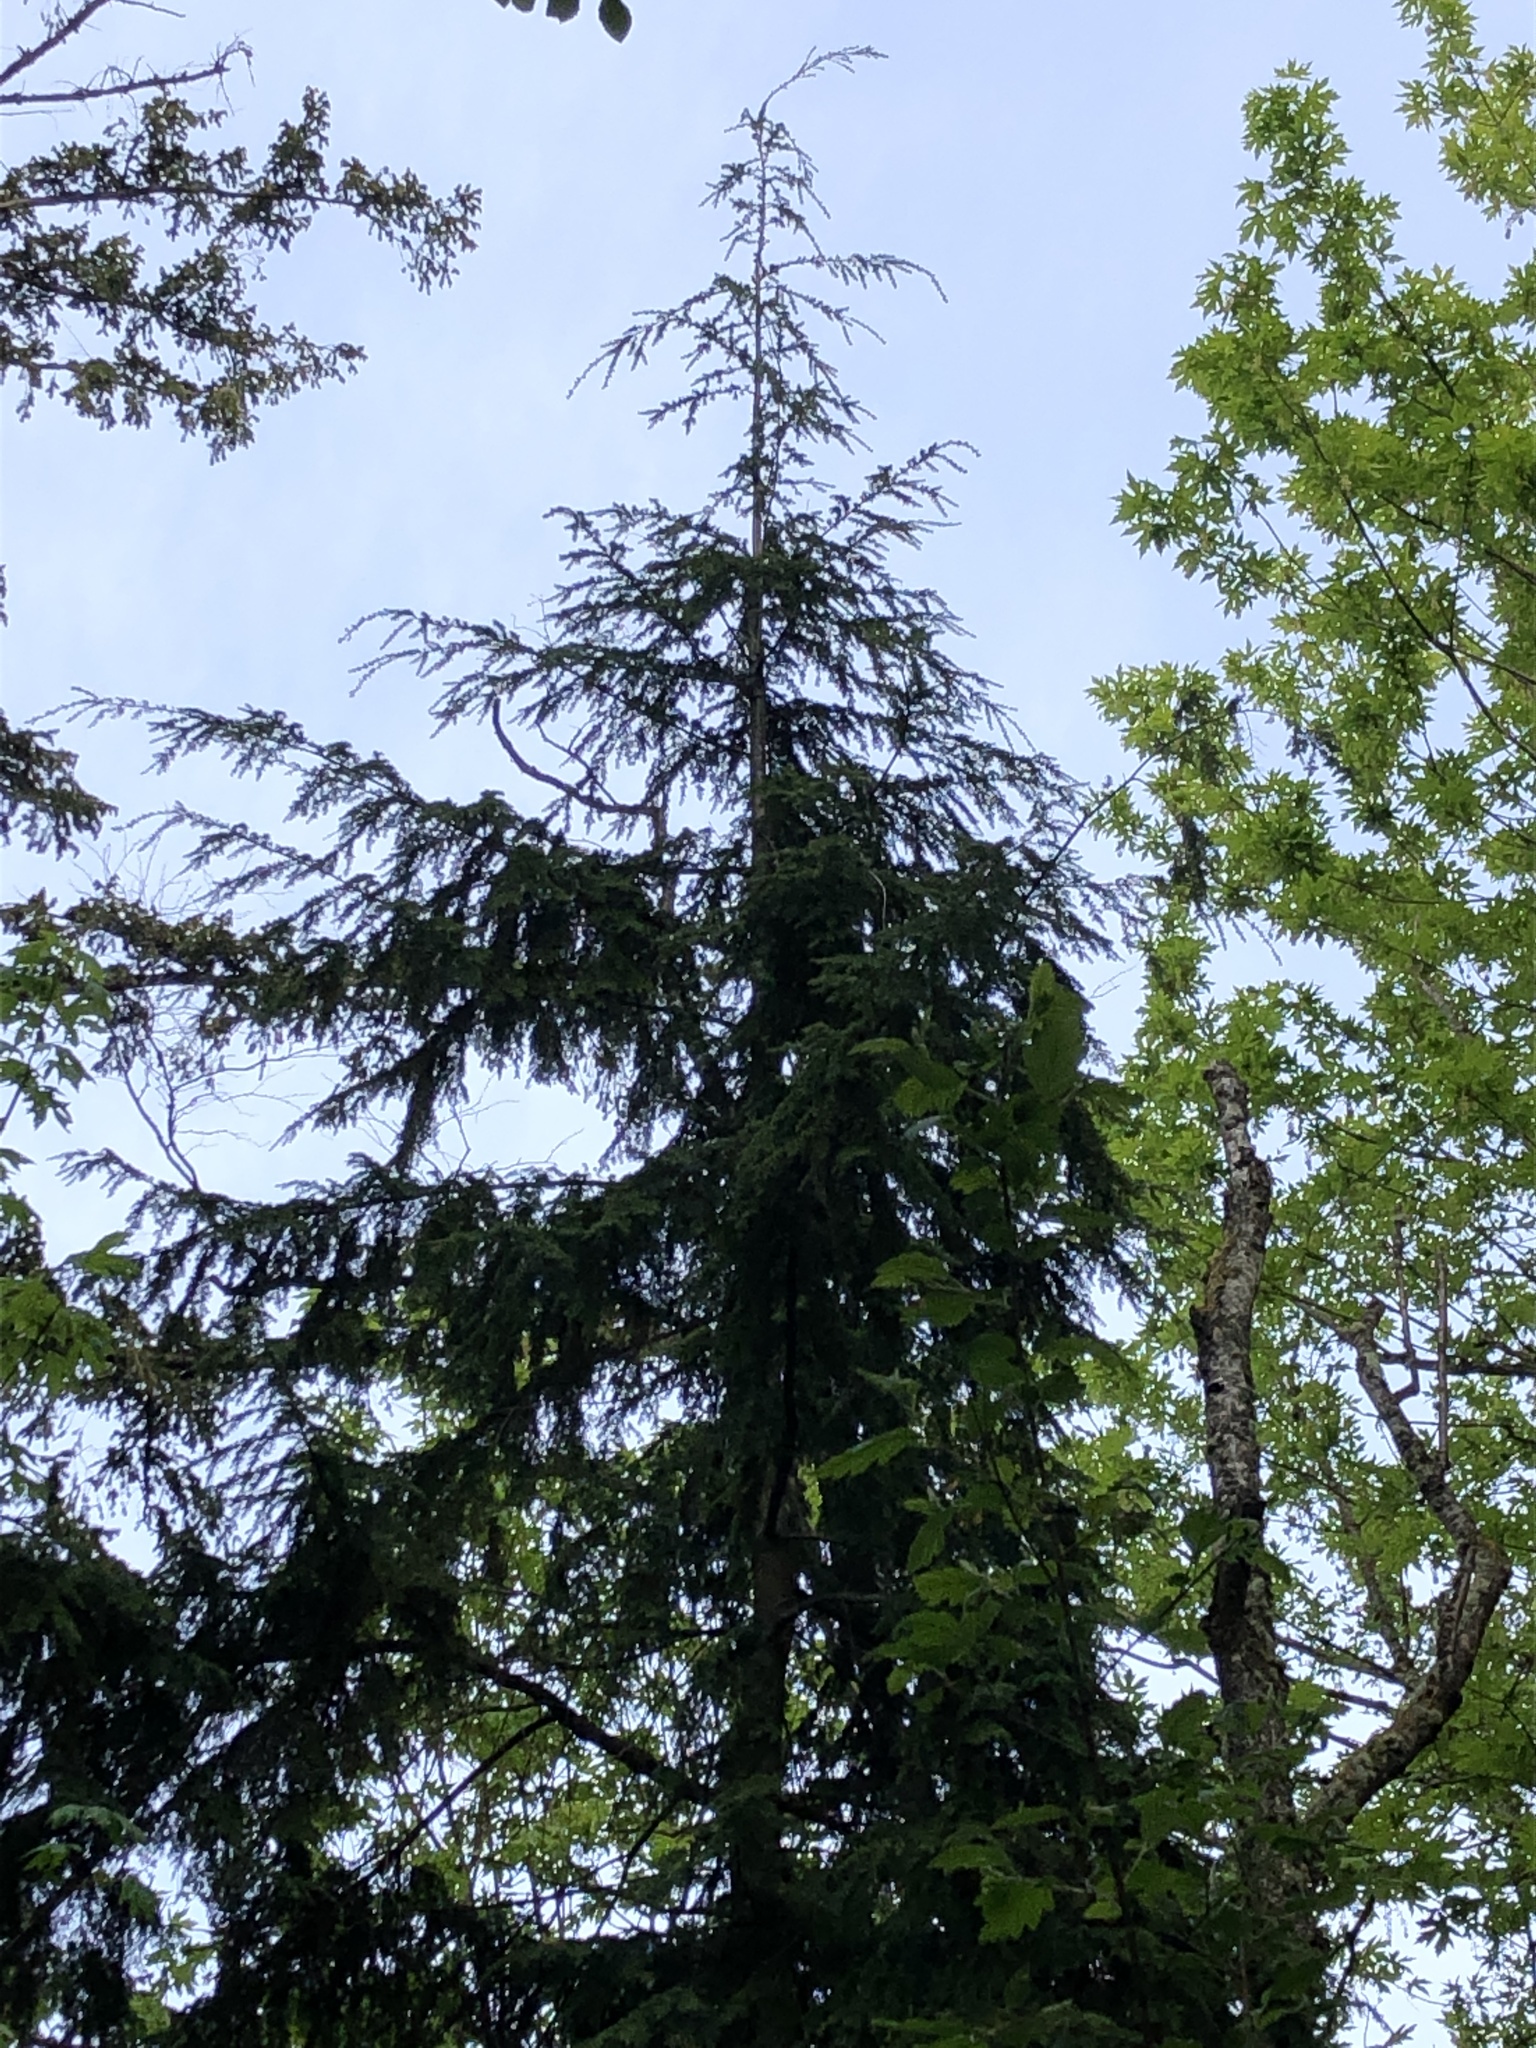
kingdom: Plantae
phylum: Tracheophyta
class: Pinopsida
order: Pinales
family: Pinaceae
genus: Tsuga
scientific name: Tsuga heterophylla
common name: Western hemlock
